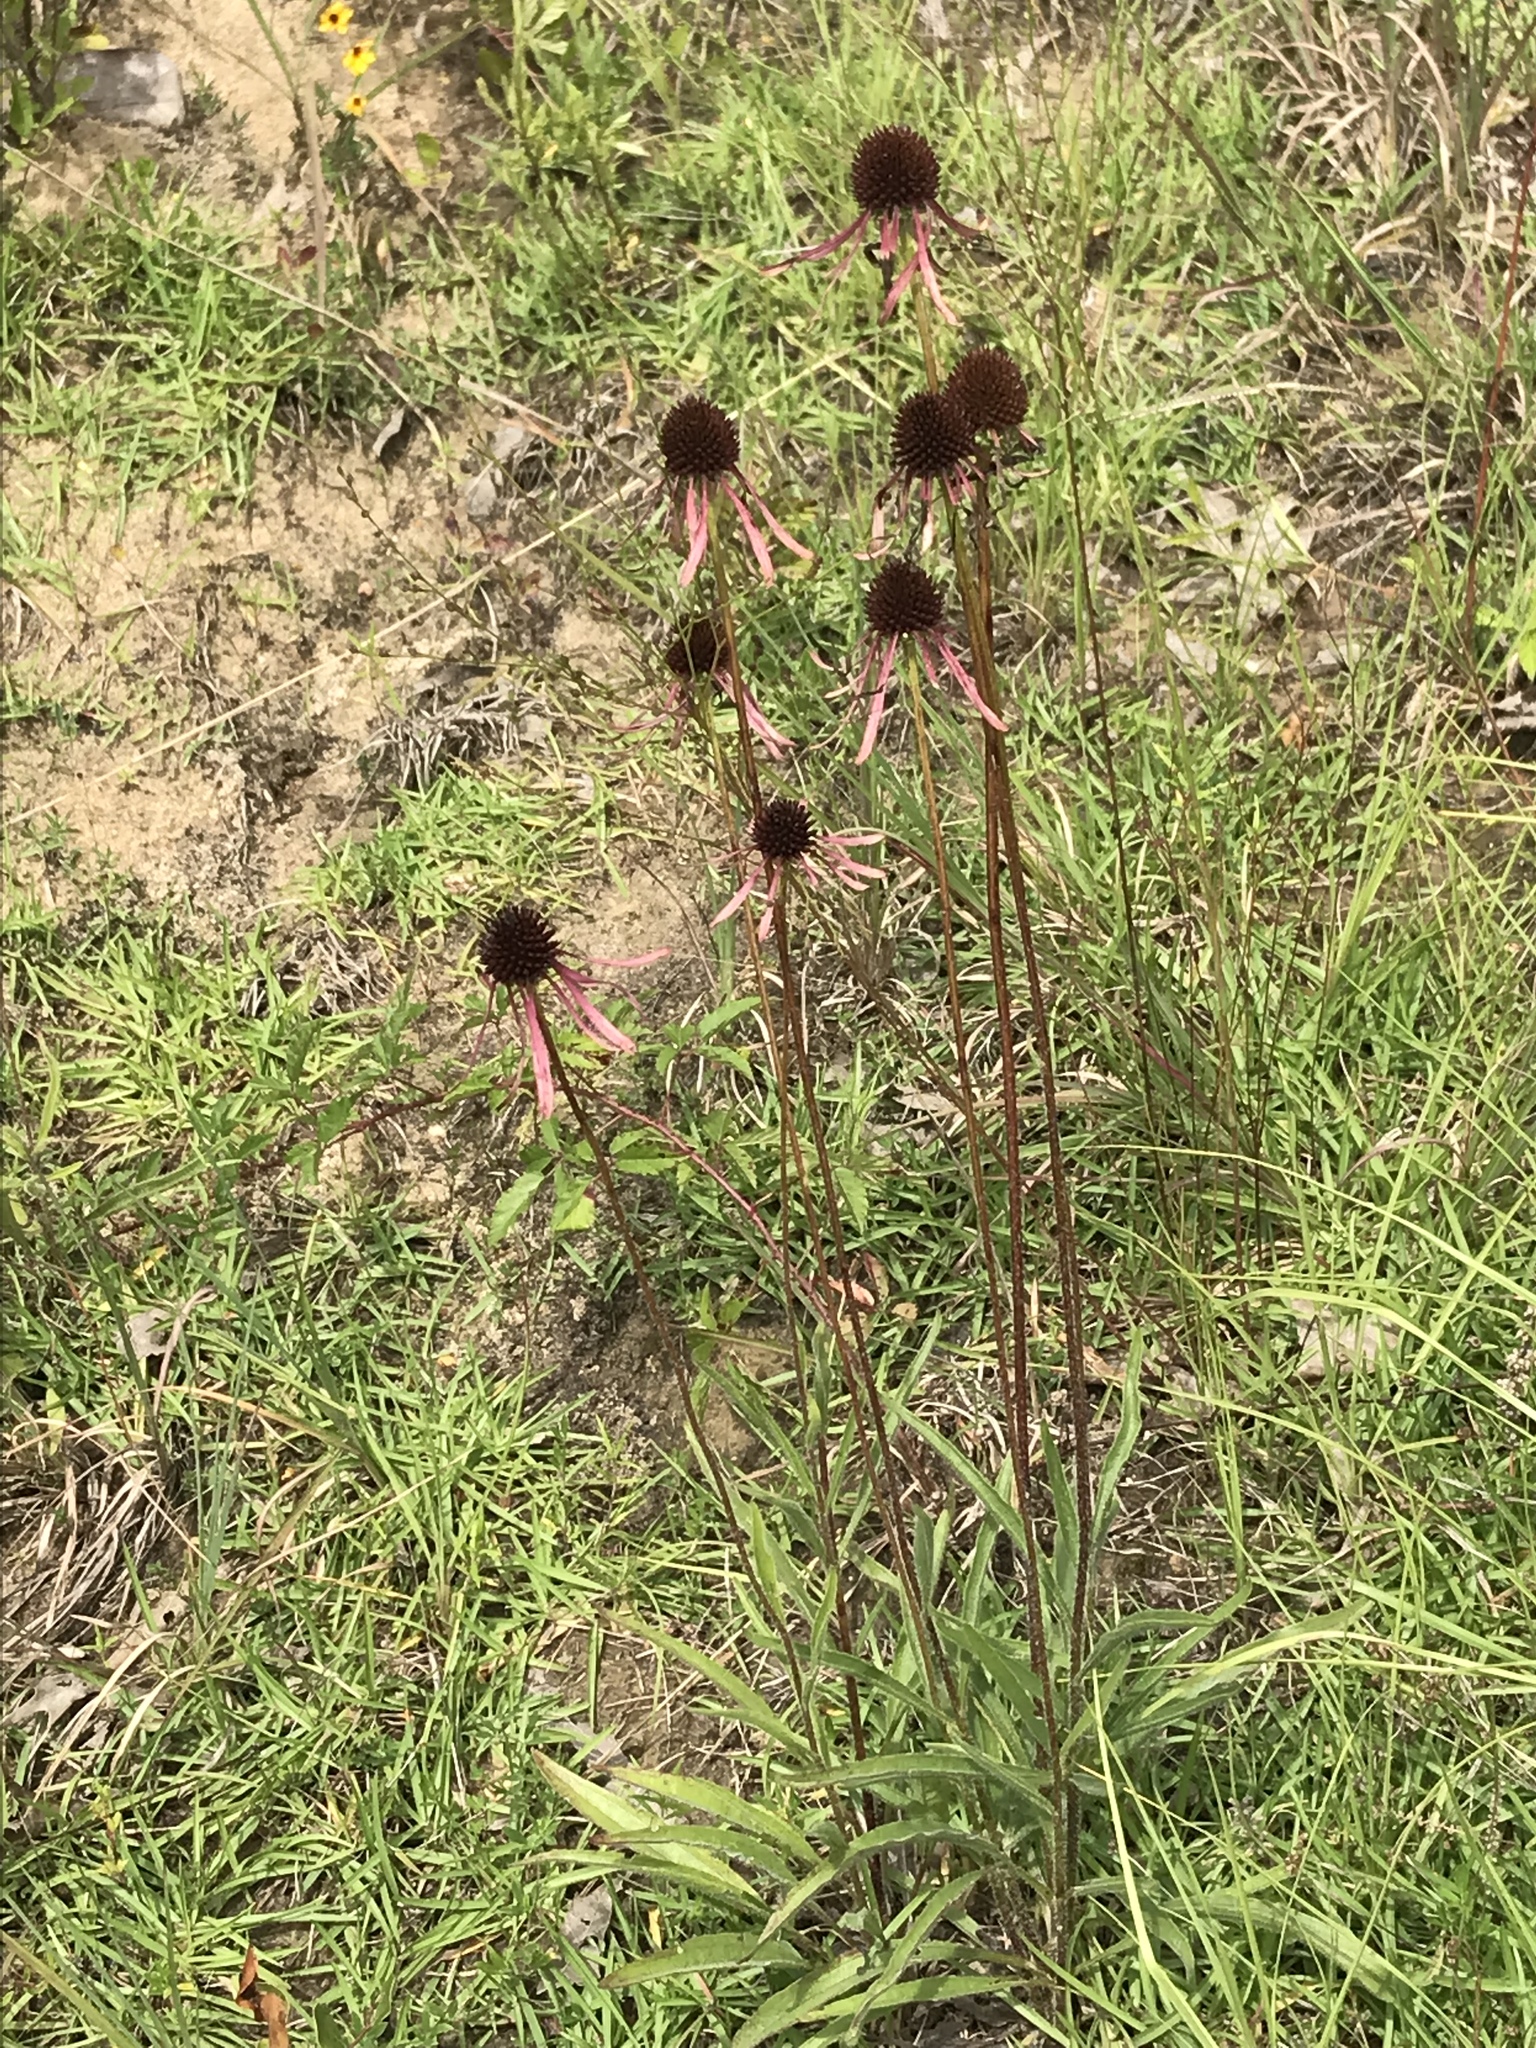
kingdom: Plantae
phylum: Tracheophyta
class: Magnoliopsida
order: Asterales
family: Asteraceae
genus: Echinacea
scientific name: Echinacea sanguinea
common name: Sanguine purple-coneflower
